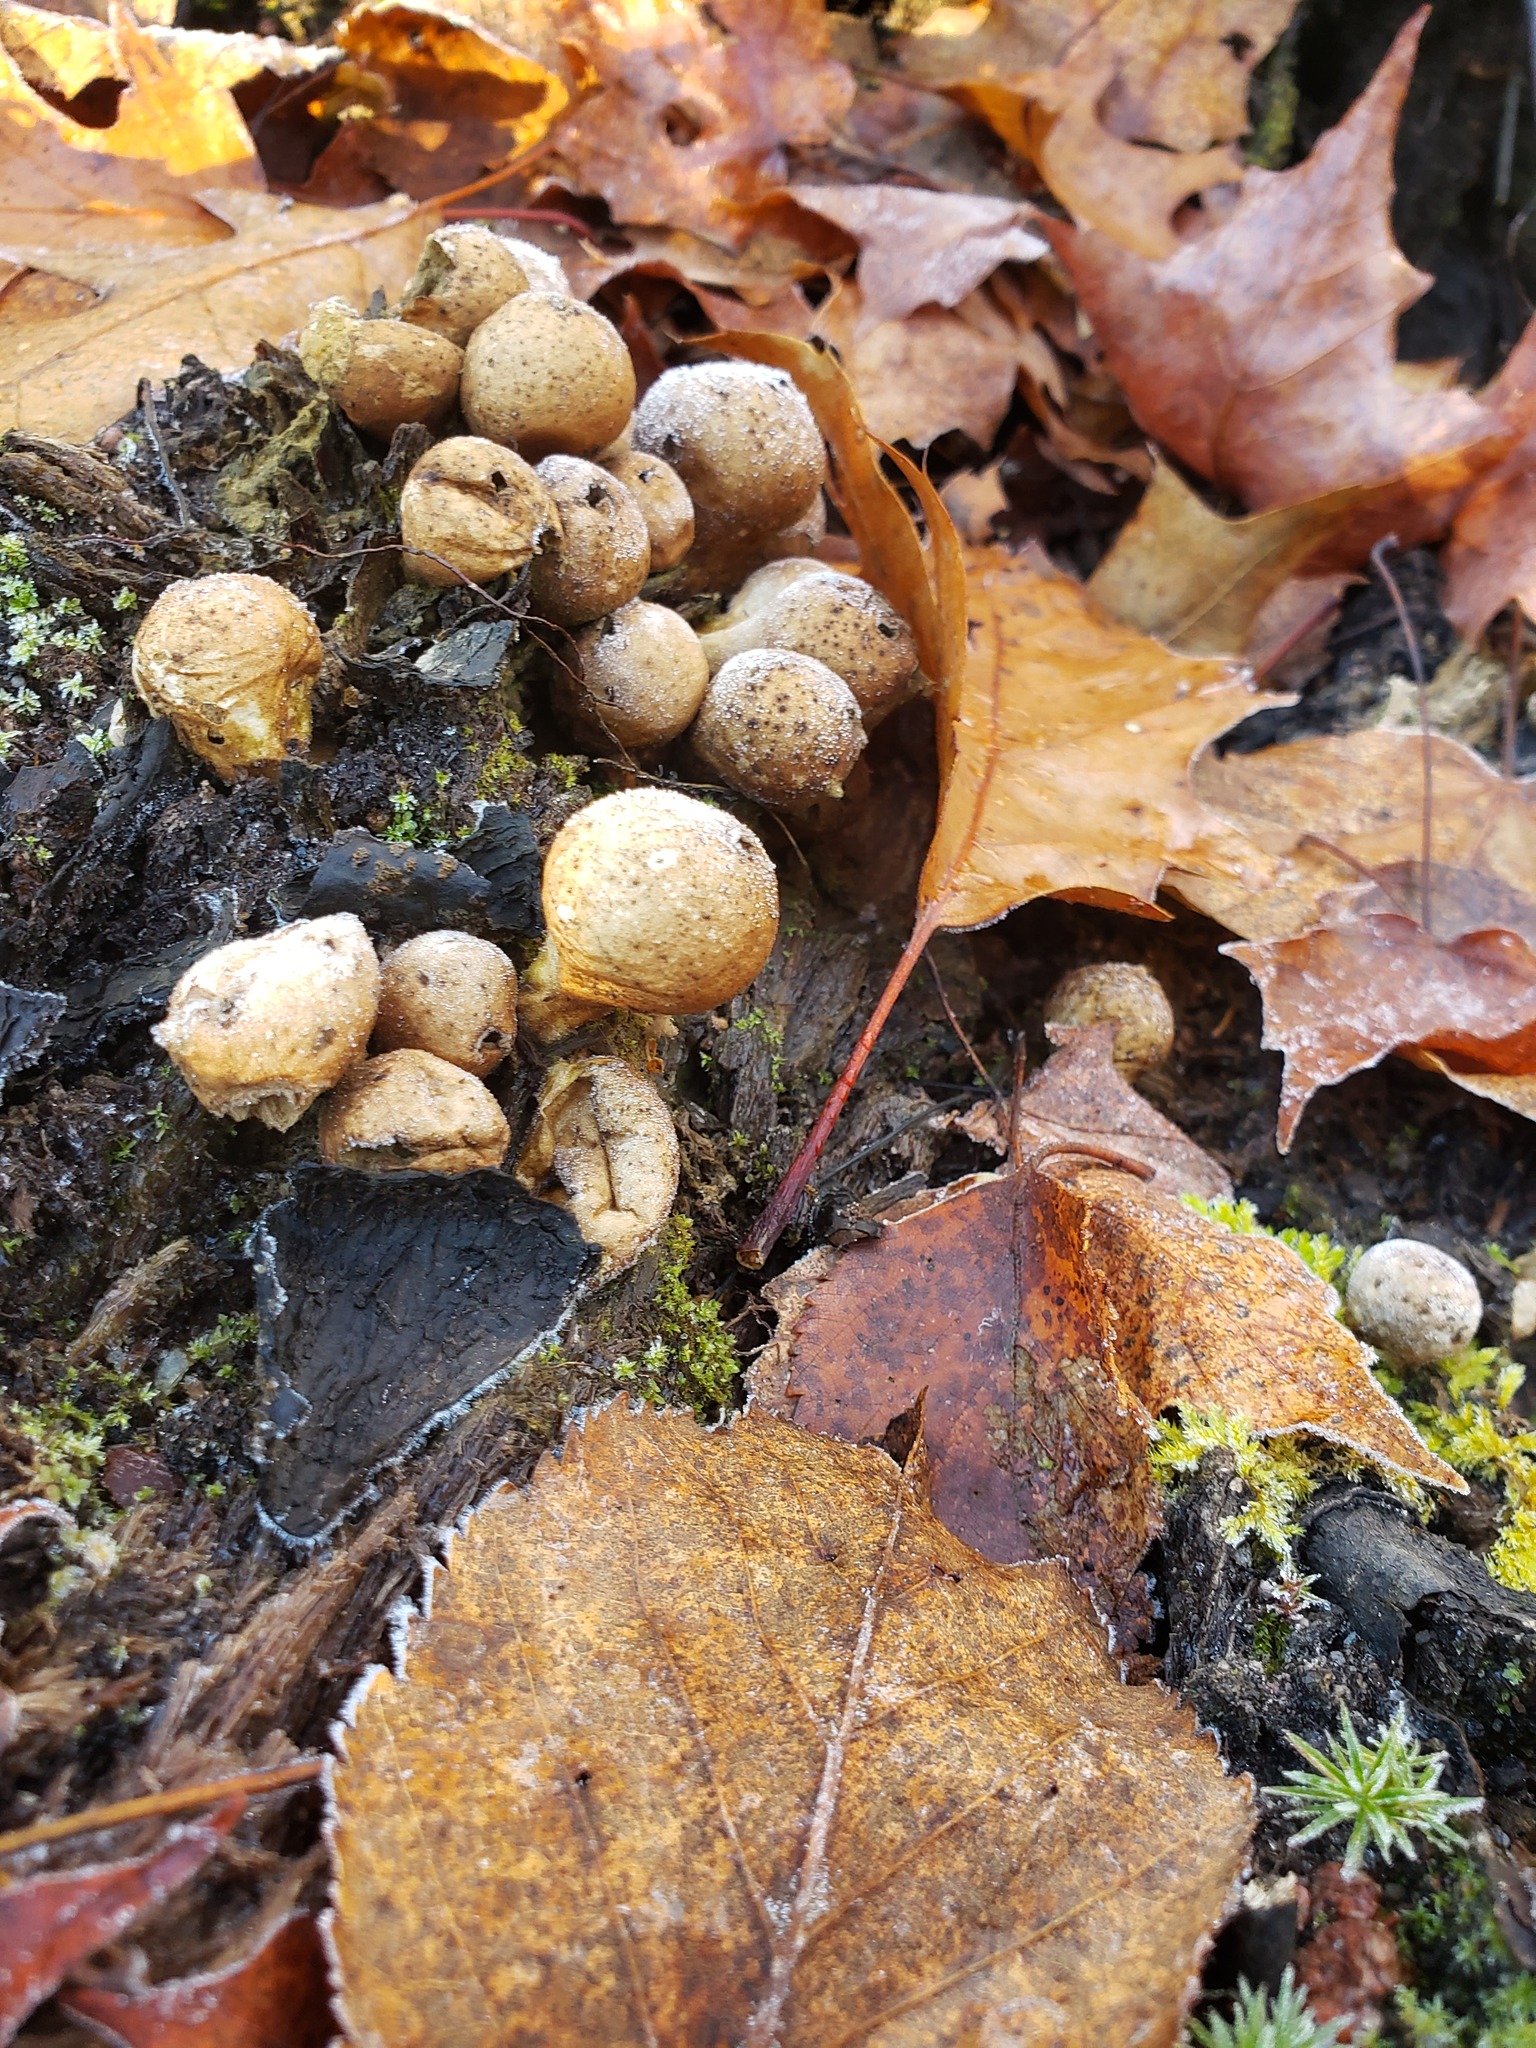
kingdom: Fungi
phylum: Basidiomycota
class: Agaricomycetes
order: Agaricales
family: Lycoperdaceae
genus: Apioperdon
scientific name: Apioperdon pyriforme
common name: Pear-shaped puffball
